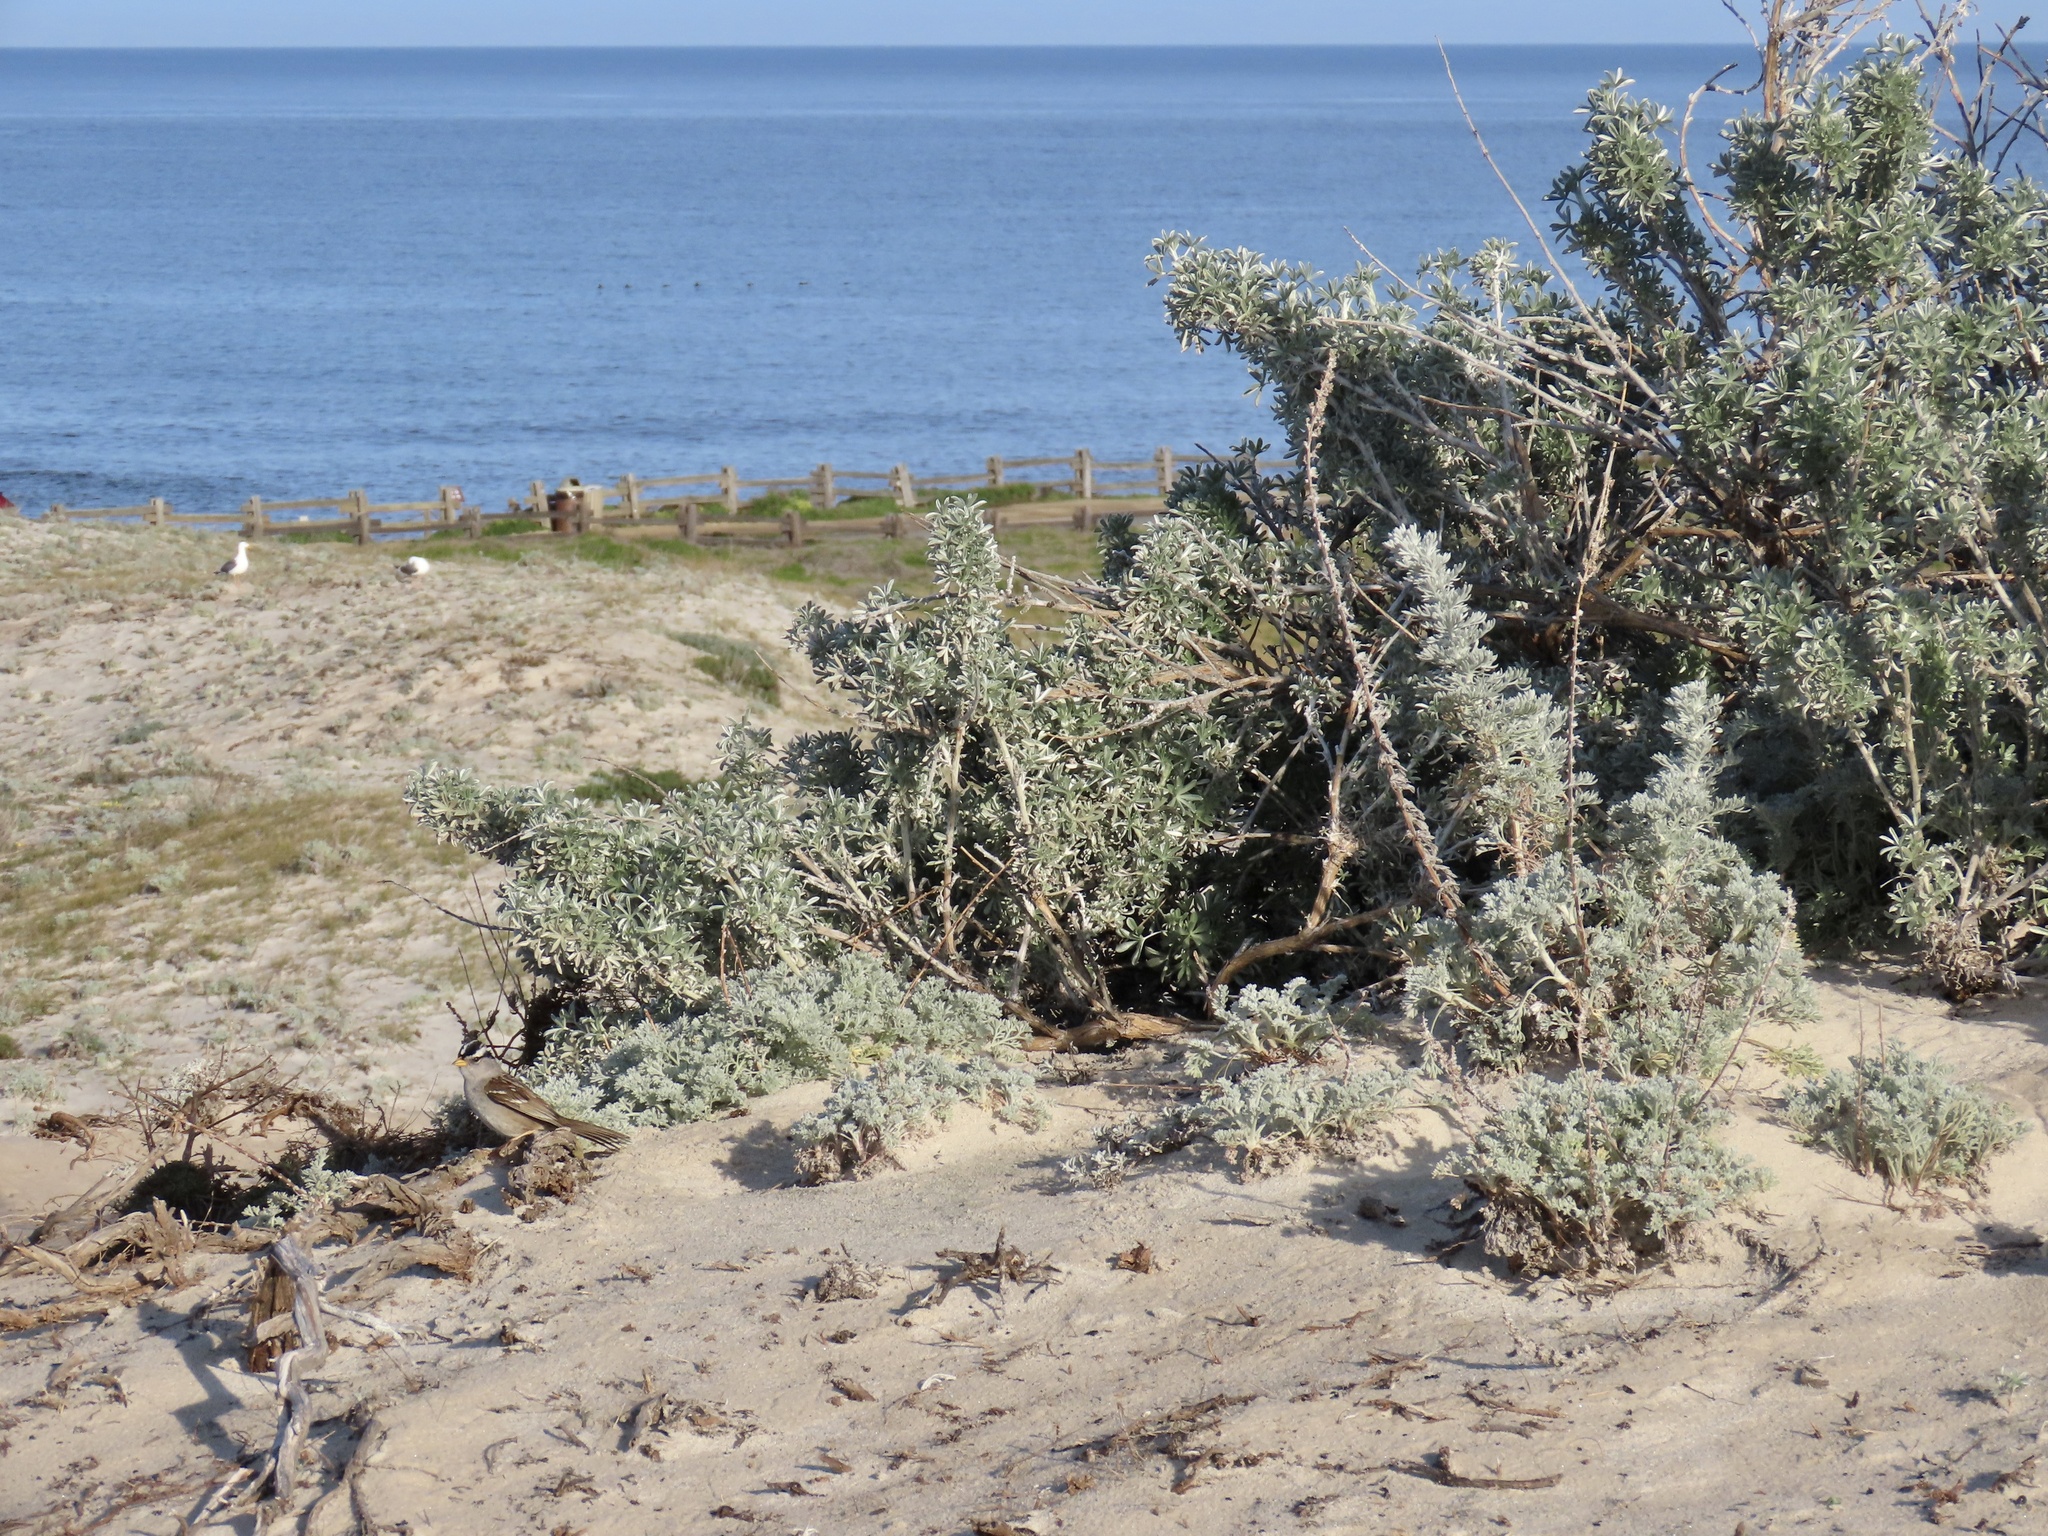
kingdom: Animalia
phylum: Chordata
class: Aves
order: Passeriformes
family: Passerellidae
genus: Zonotrichia
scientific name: Zonotrichia leucophrys
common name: White-crowned sparrow
